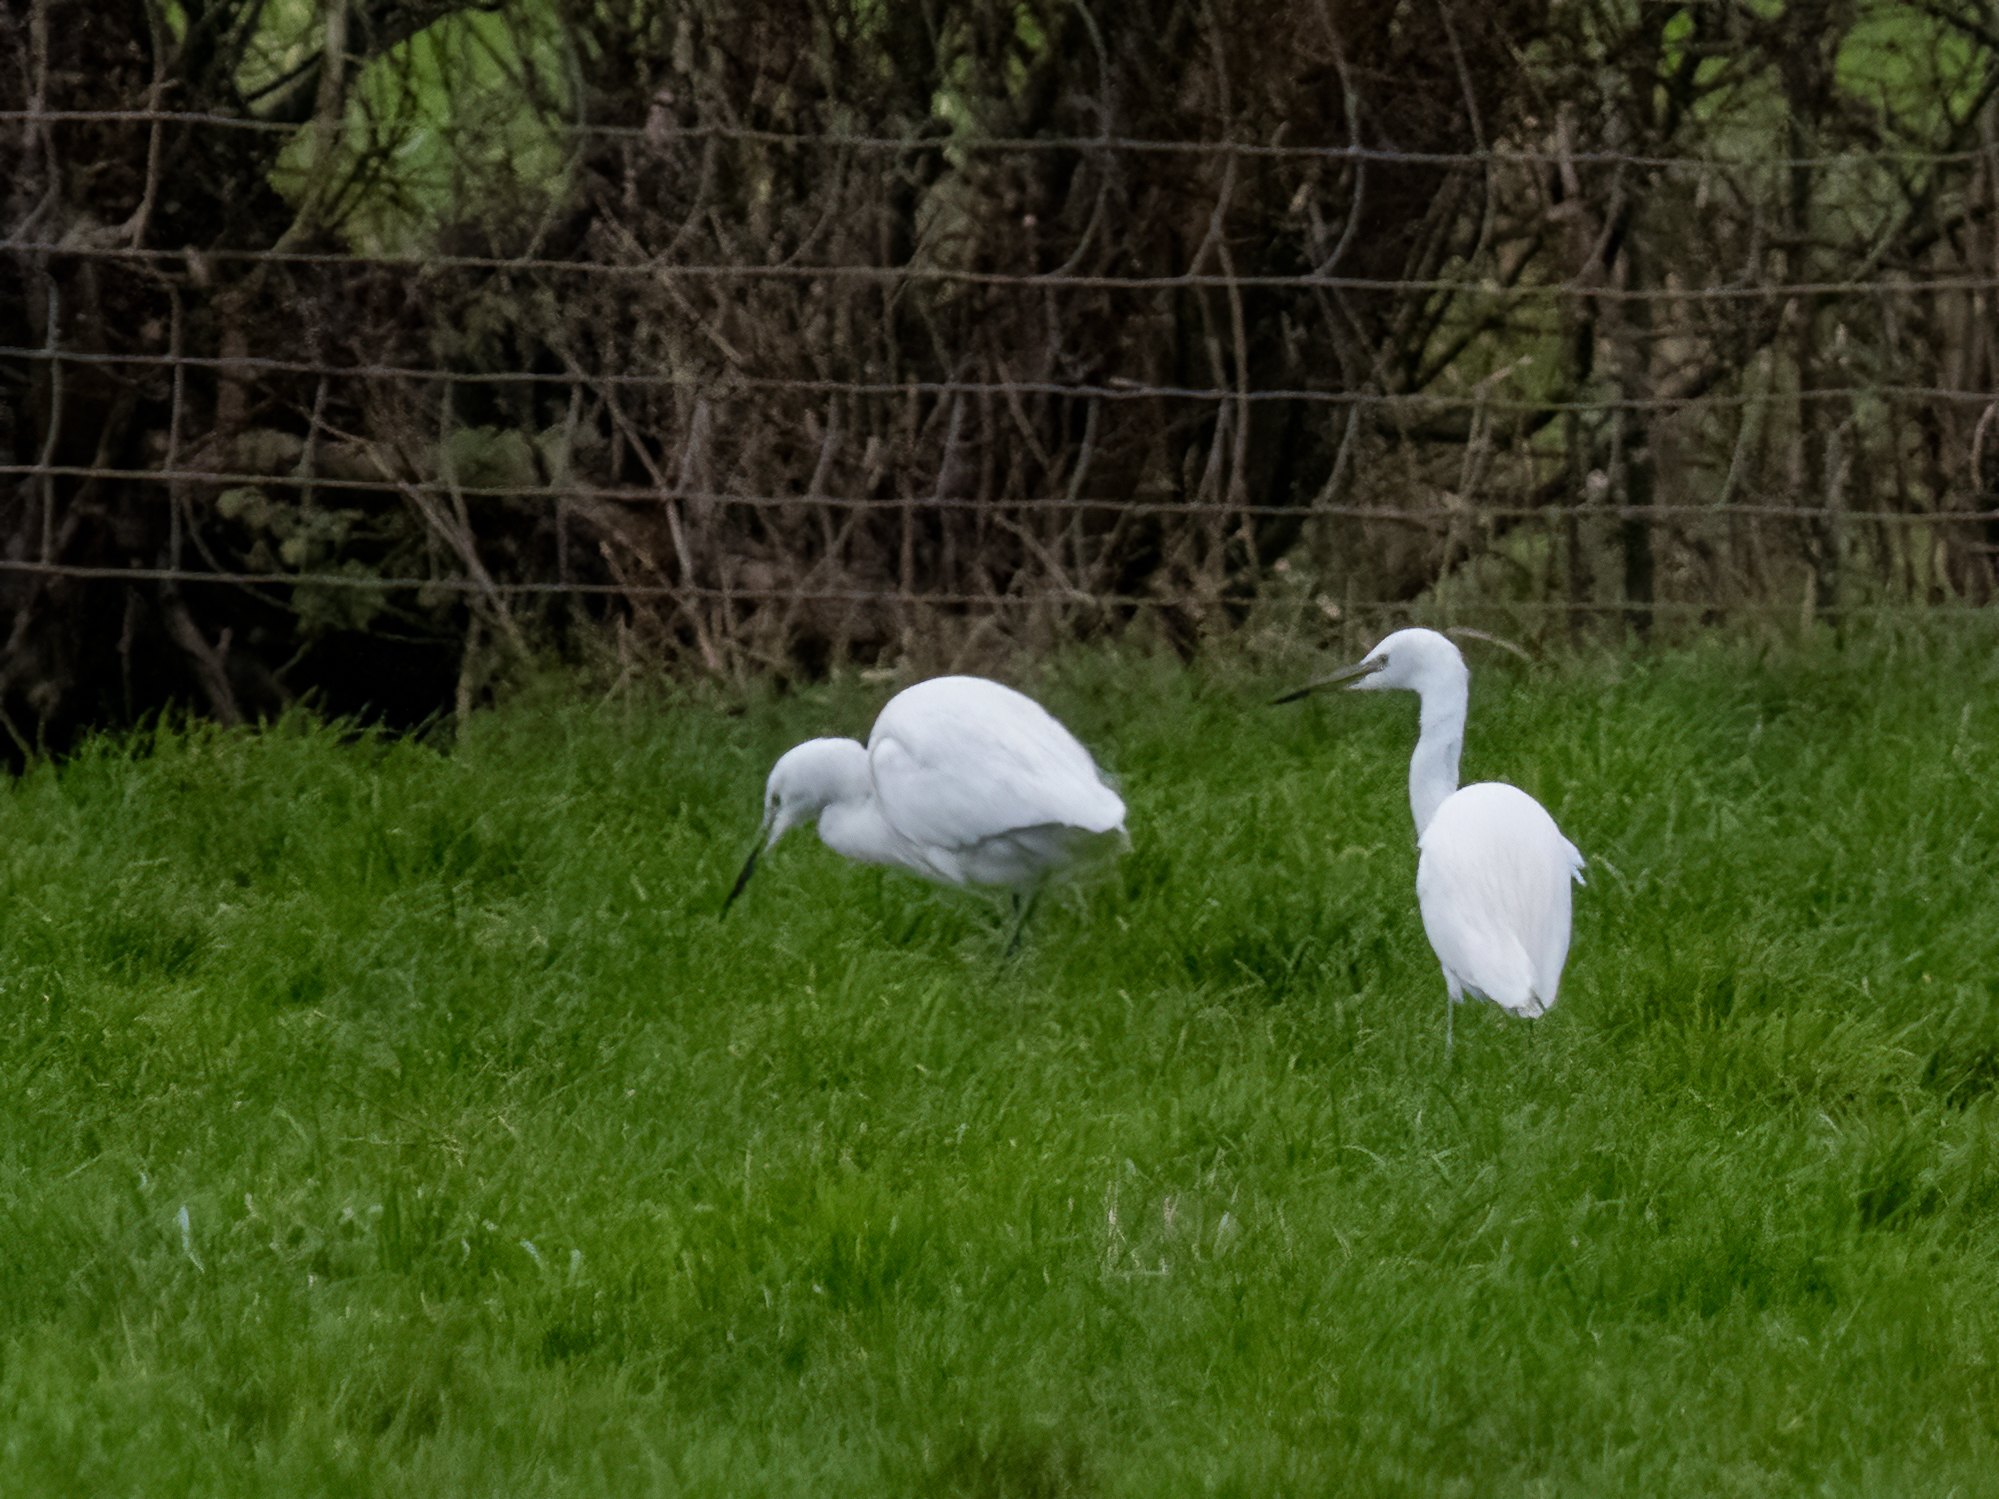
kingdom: Animalia
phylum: Chordata
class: Aves
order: Pelecaniformes
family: Ardeidae
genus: Egretta
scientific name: Egretta garzetta
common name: Little egret
